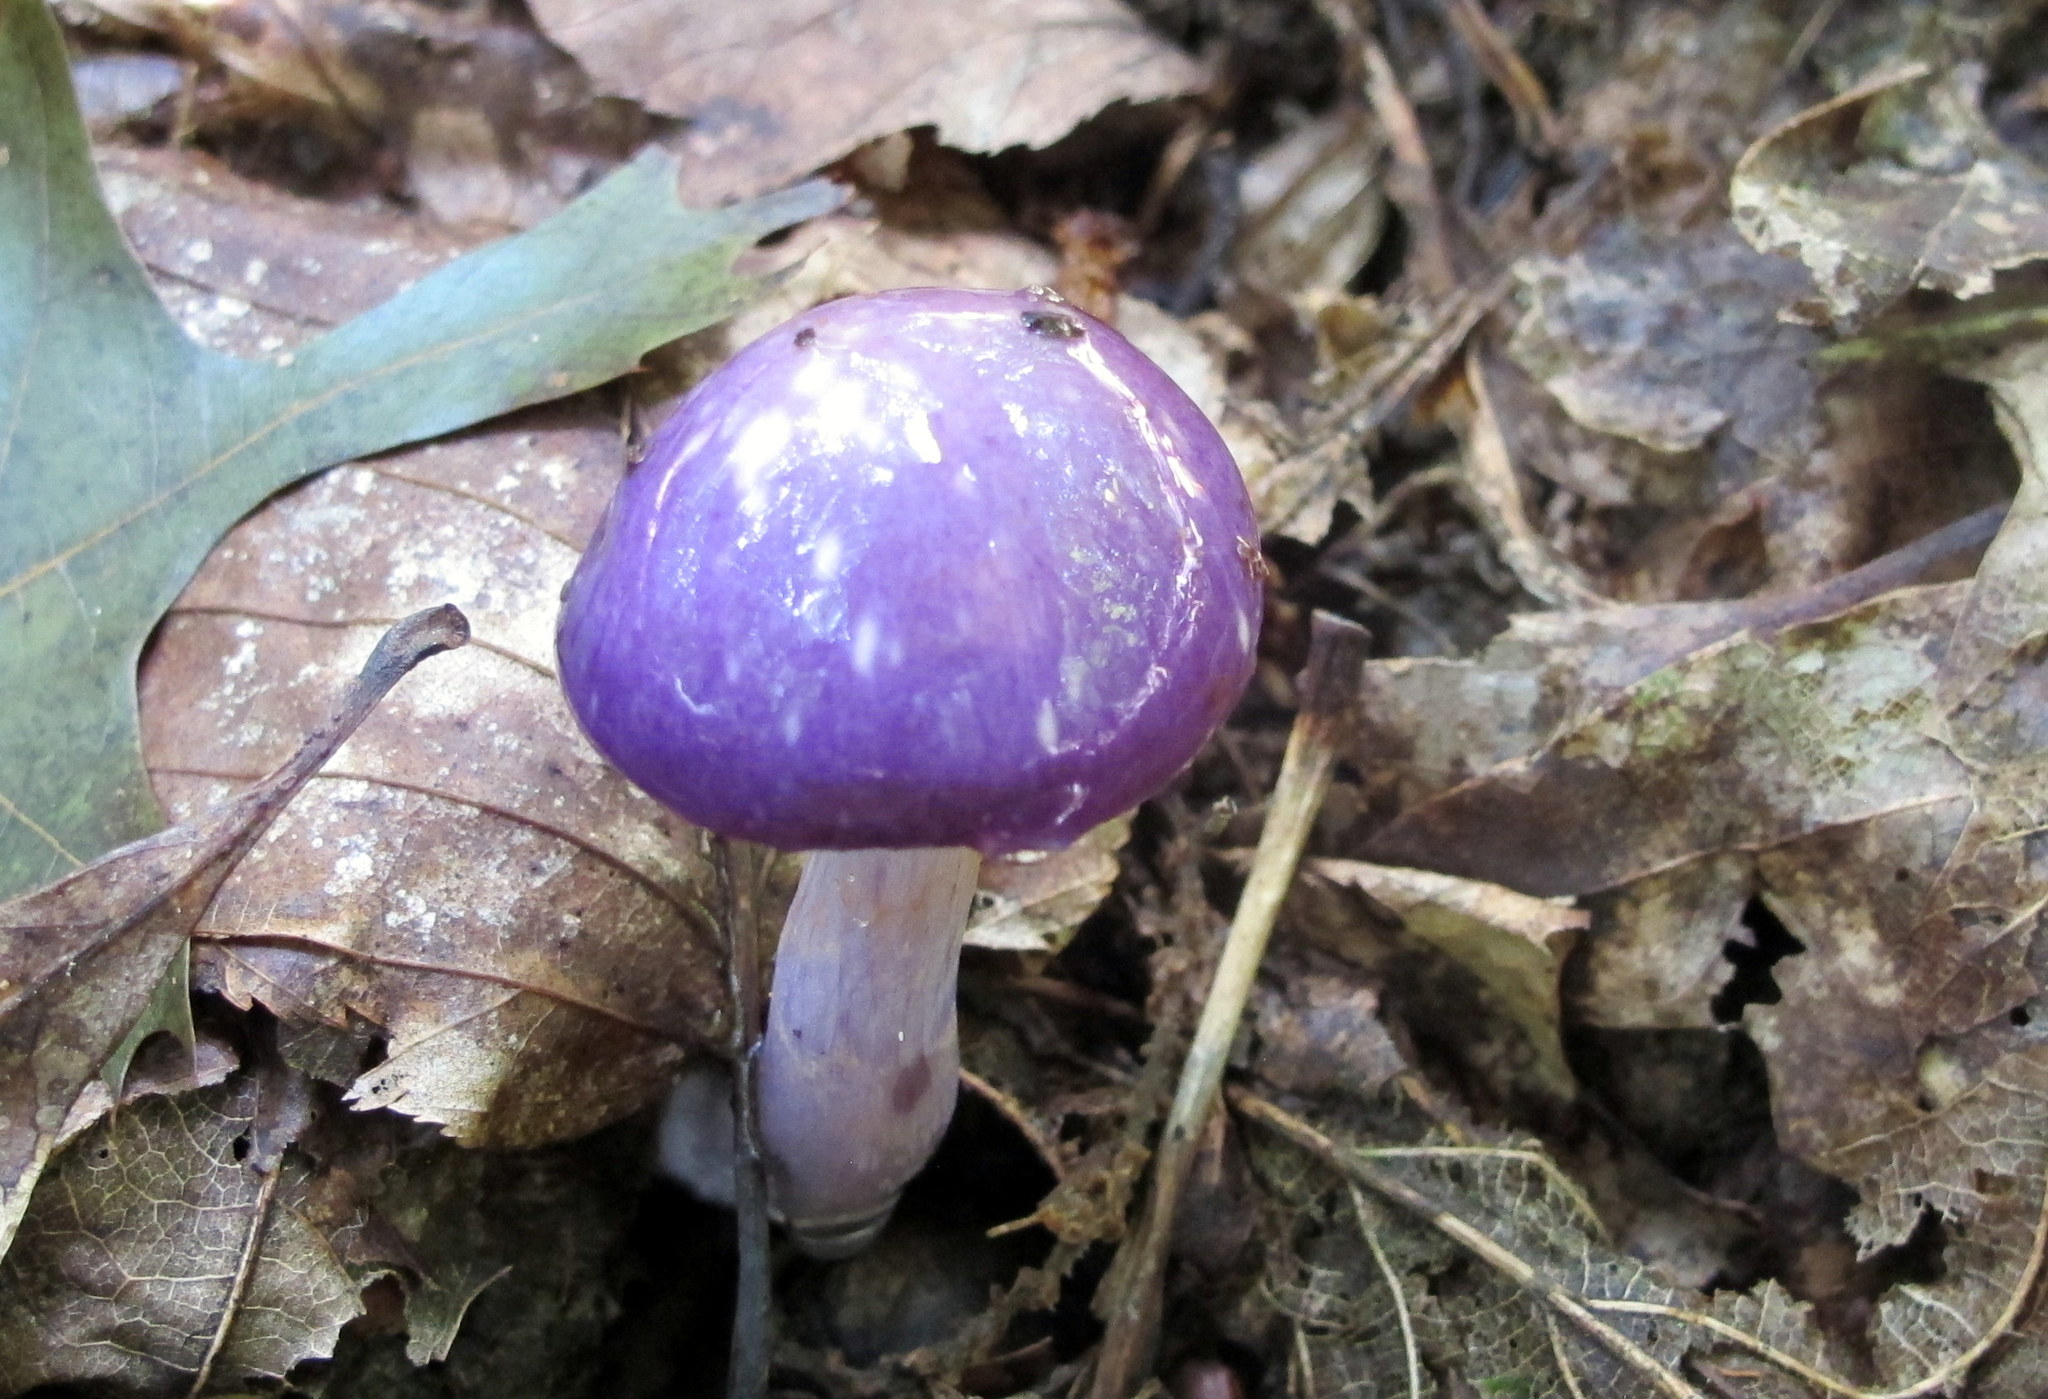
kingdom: Fungi
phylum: Basidiomycota
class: Agaricomycetes
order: Agaricales
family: Cortinariaceae
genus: Cortinarius
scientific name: Cortinarius iodes
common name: Viscid violet cort
